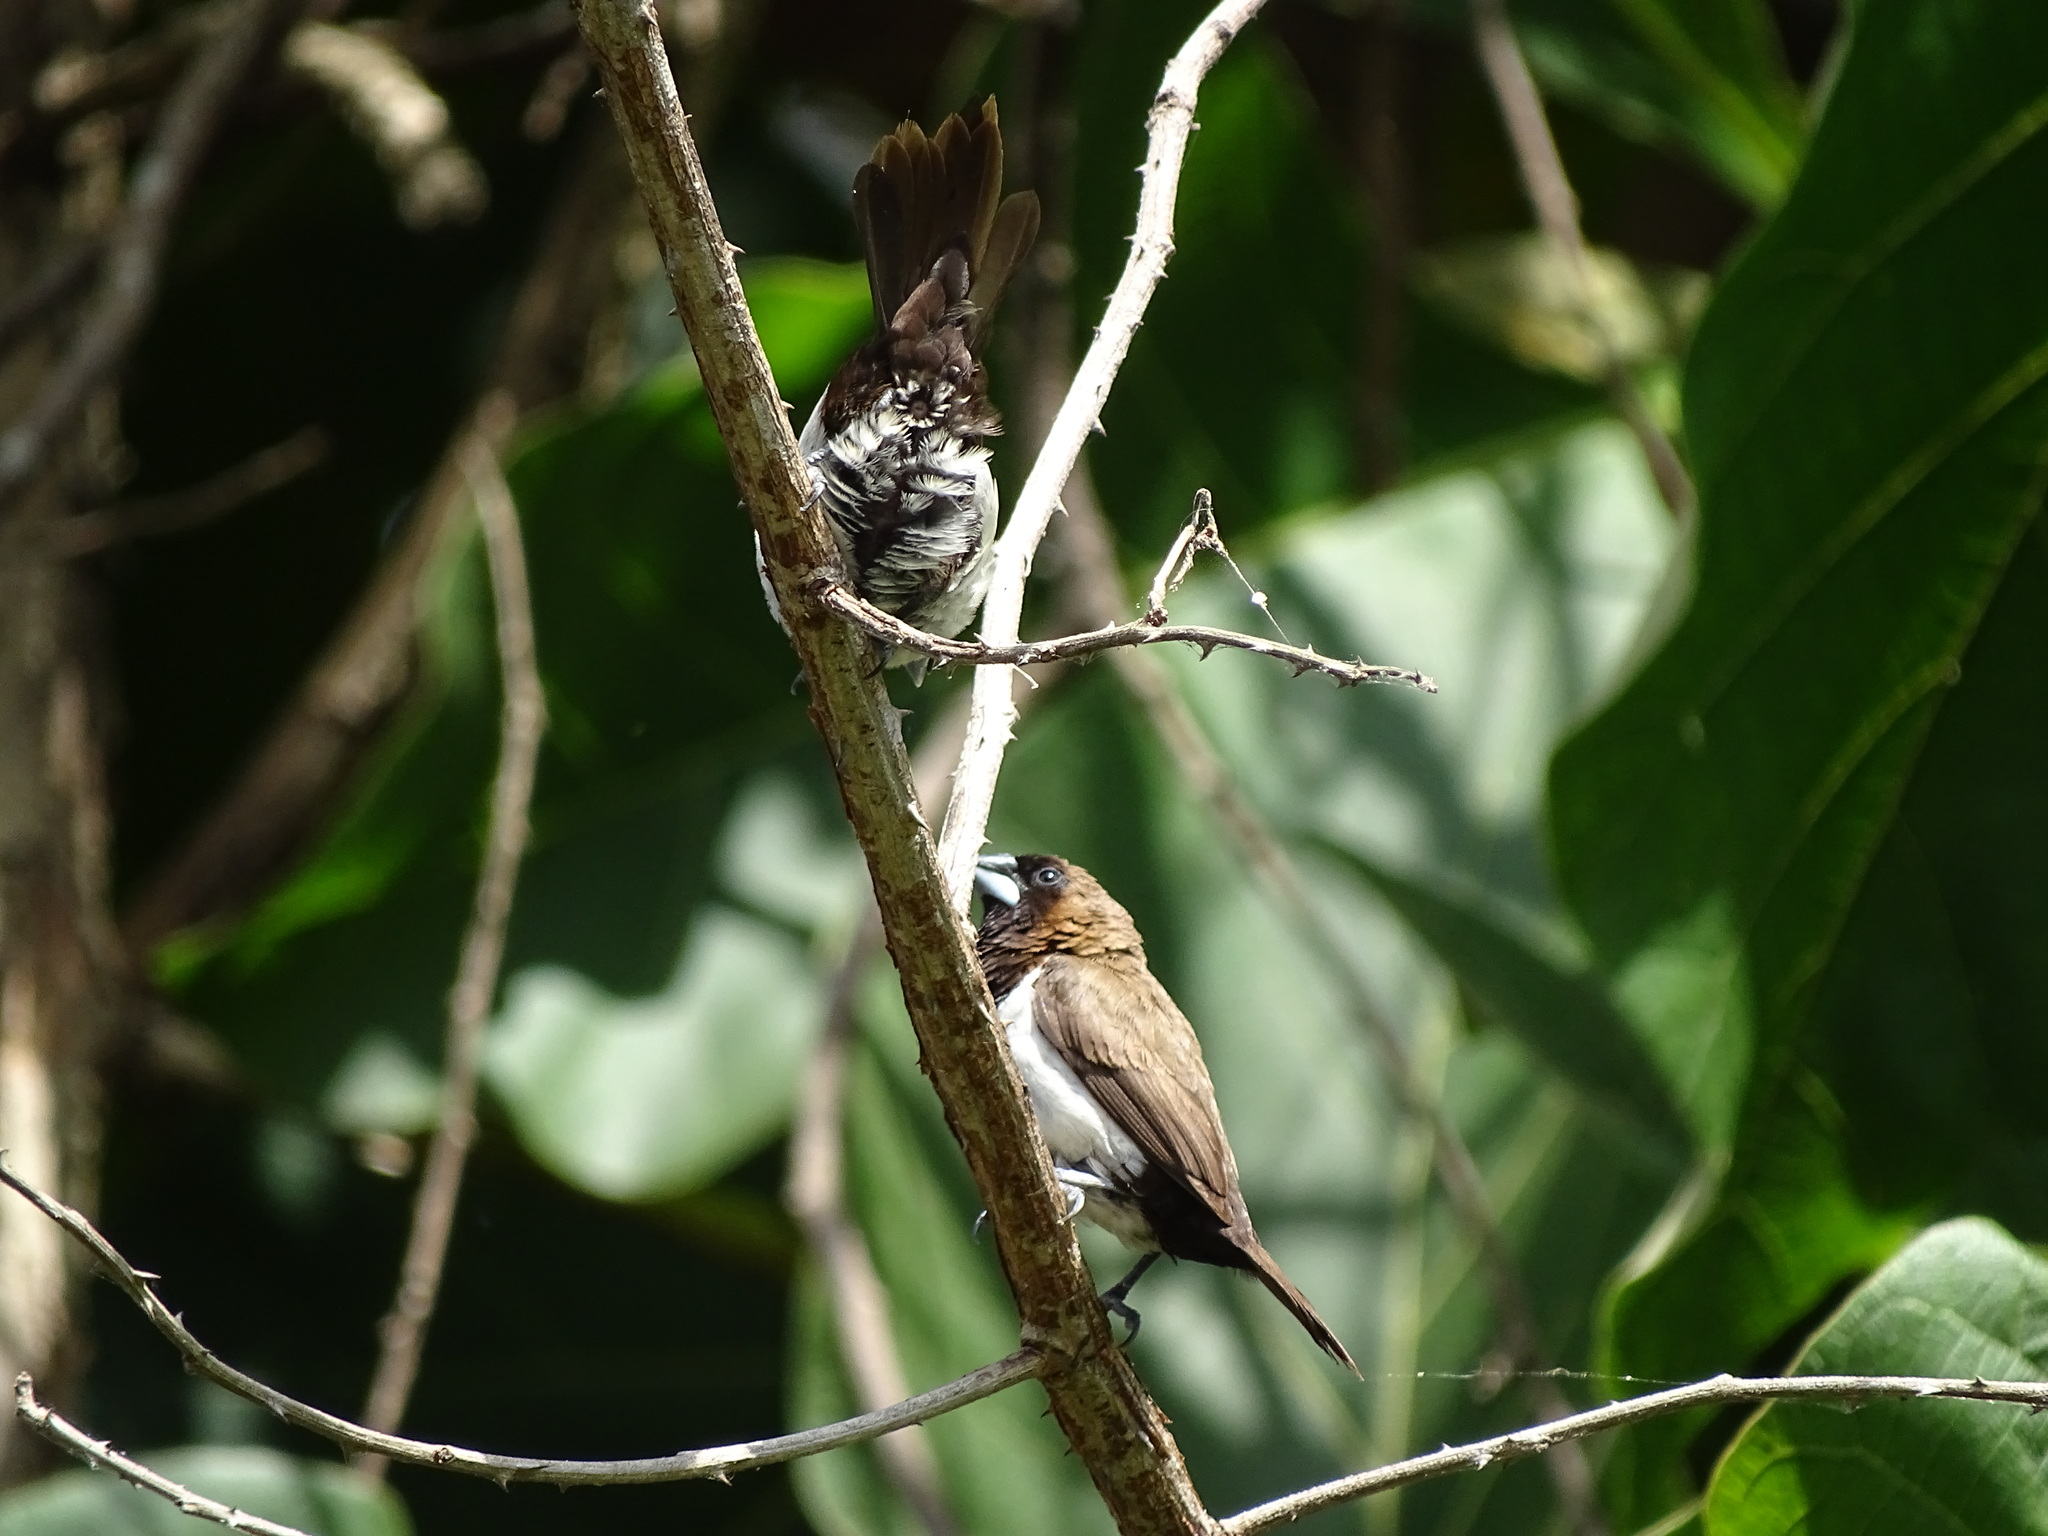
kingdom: Animalia
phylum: Chordata
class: Aves
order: Passeriformes
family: Estrildidae
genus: Lonchura
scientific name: Lonchura leucogastroides
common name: Javan munia
